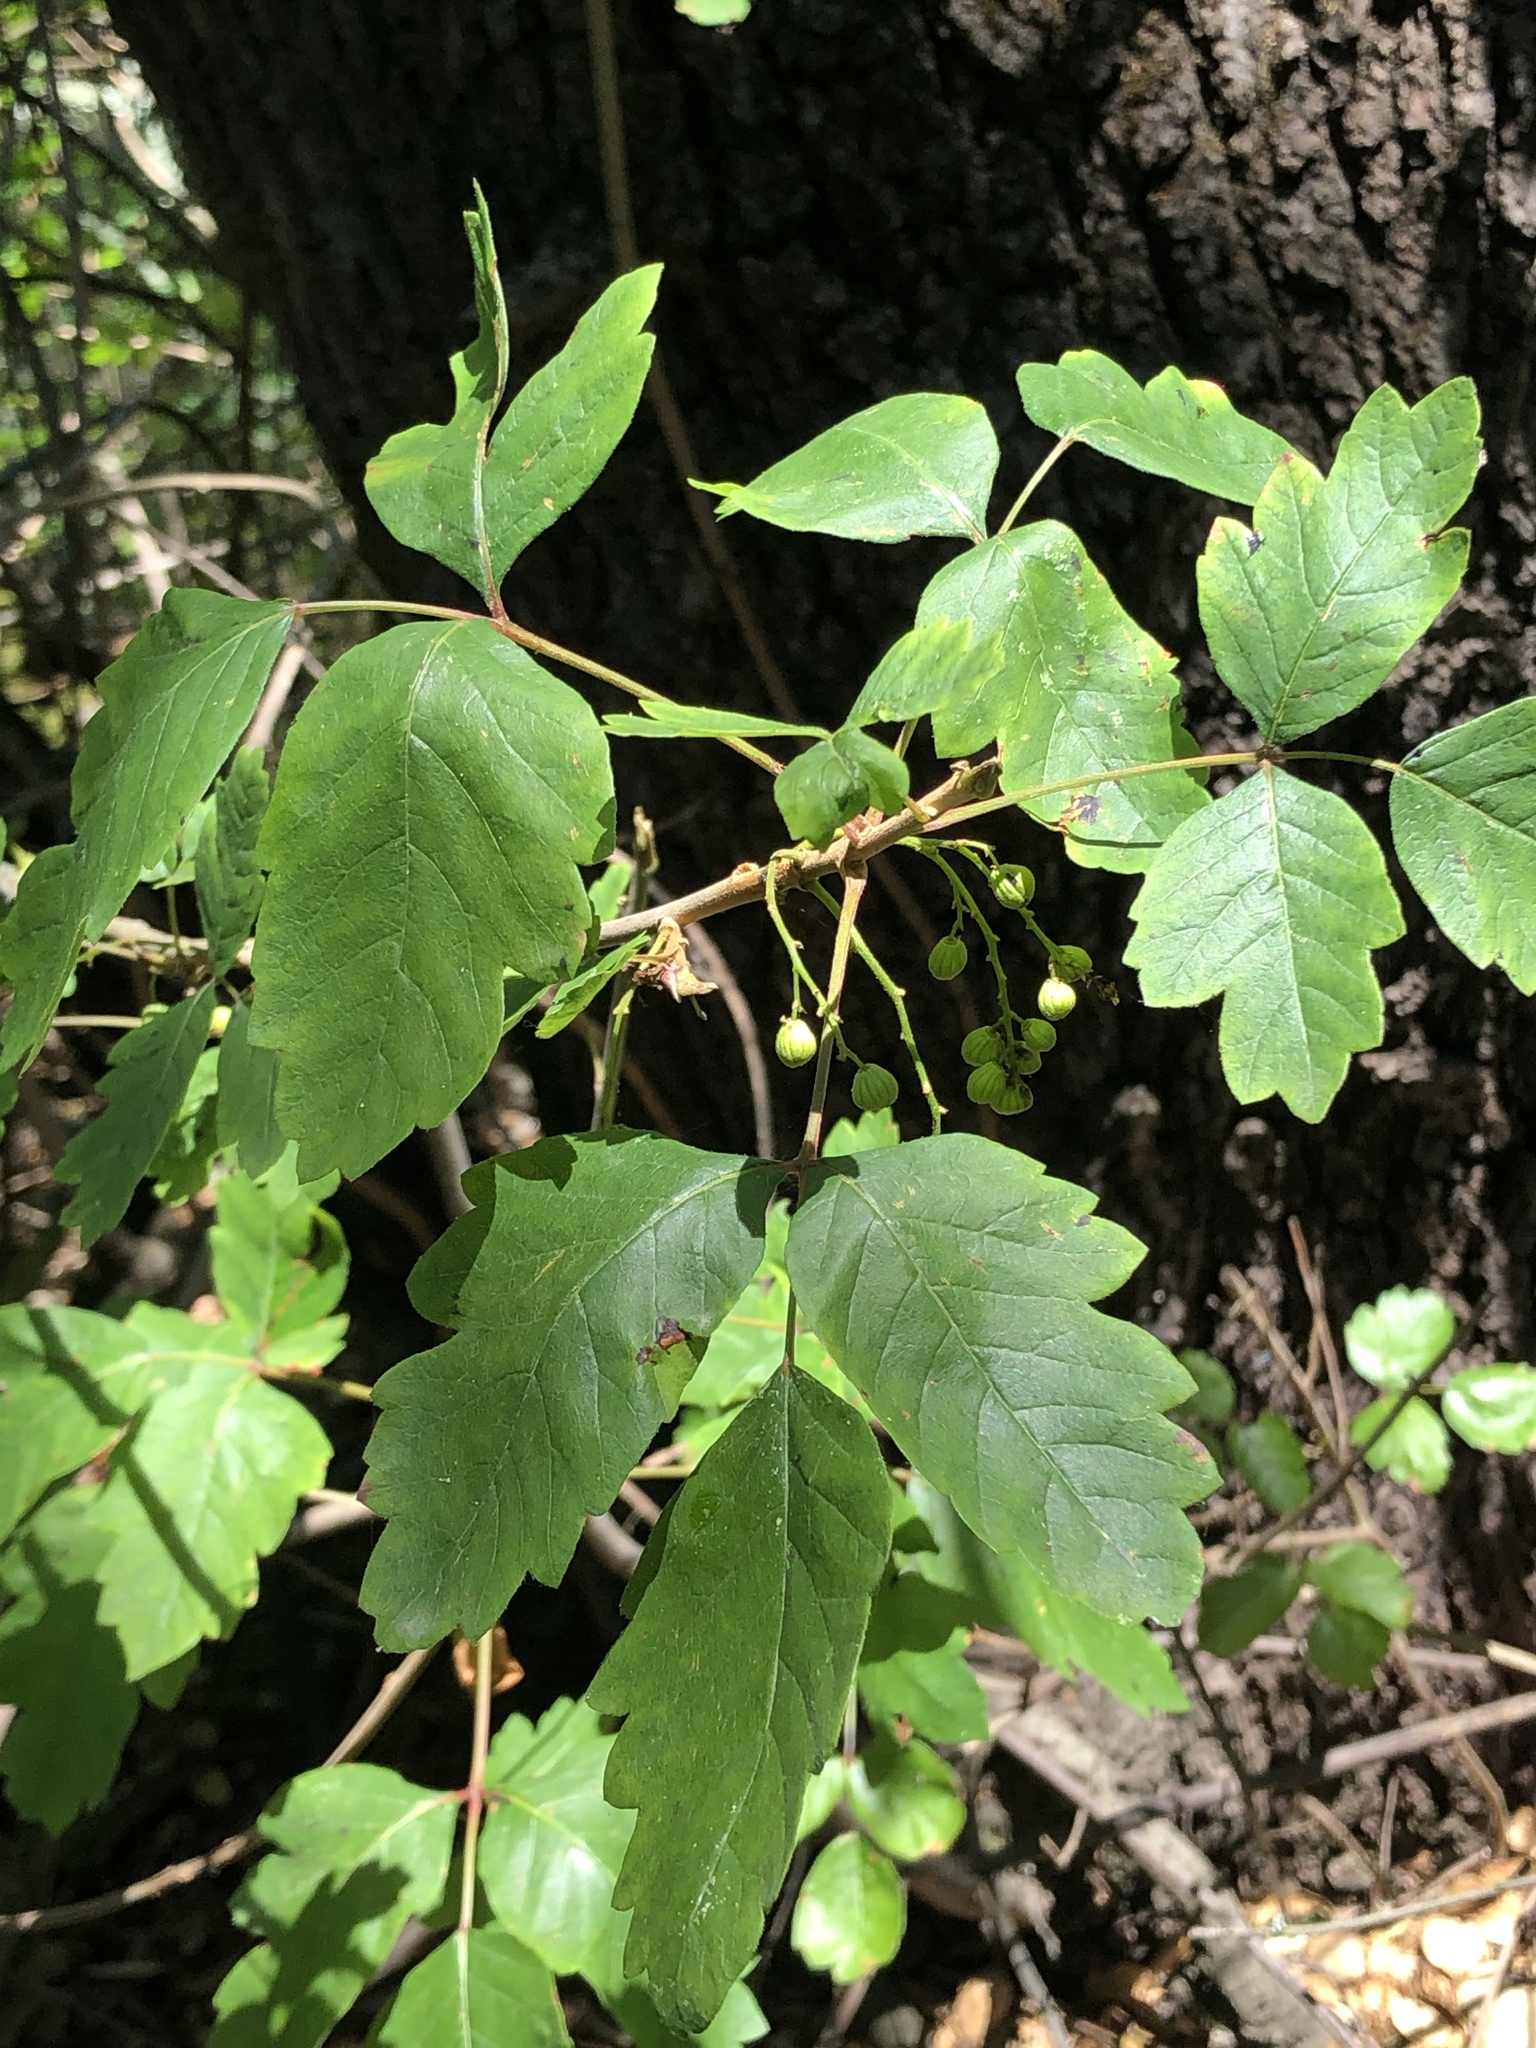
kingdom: Plantae
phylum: Tracheophyta
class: Magnoliopsida
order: Sapindales
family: Anacardiaceae
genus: Toxicodendron
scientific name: Toxicodendron diversilobum
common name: Pacific poison-oak
